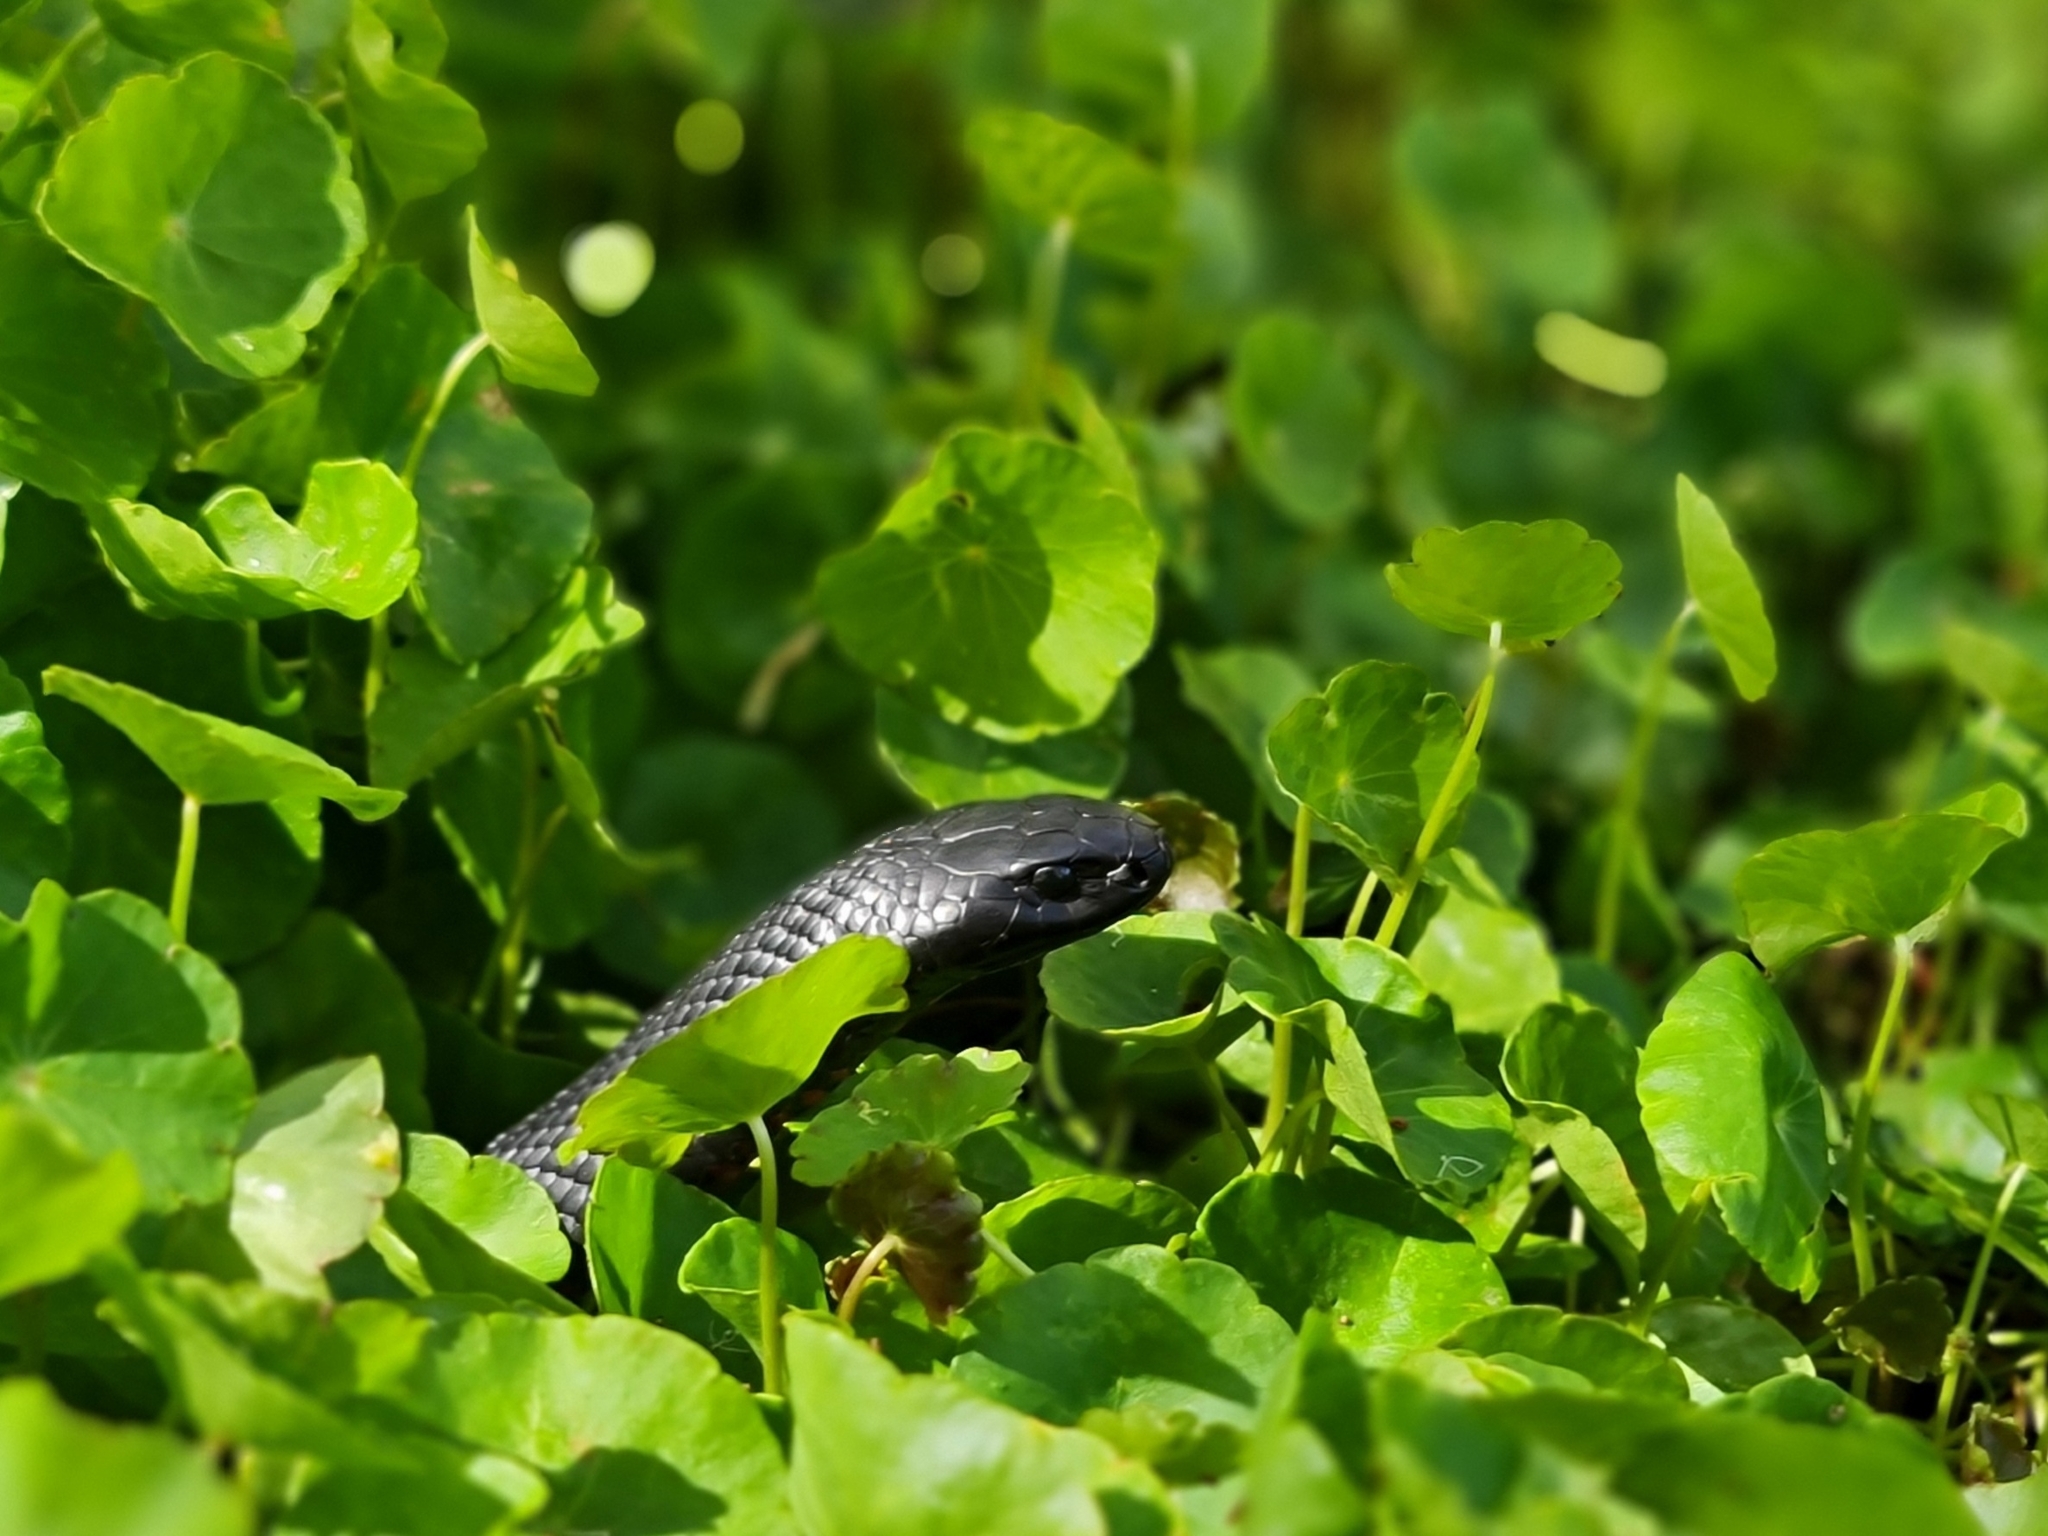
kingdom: Animalia
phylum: Chordata
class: Squamata
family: Elapidae
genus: Pseudechis
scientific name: Pseudechis porphyriacus
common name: Australian black snake
